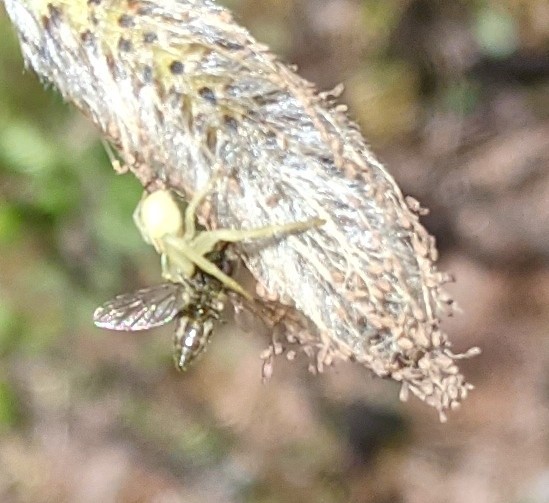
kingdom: Animalia
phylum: Arthropoda
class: Arachnida
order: Araneae
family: Thomisidae
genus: Misumena
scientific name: Misumena vatia
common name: Goldenrod crab spider
